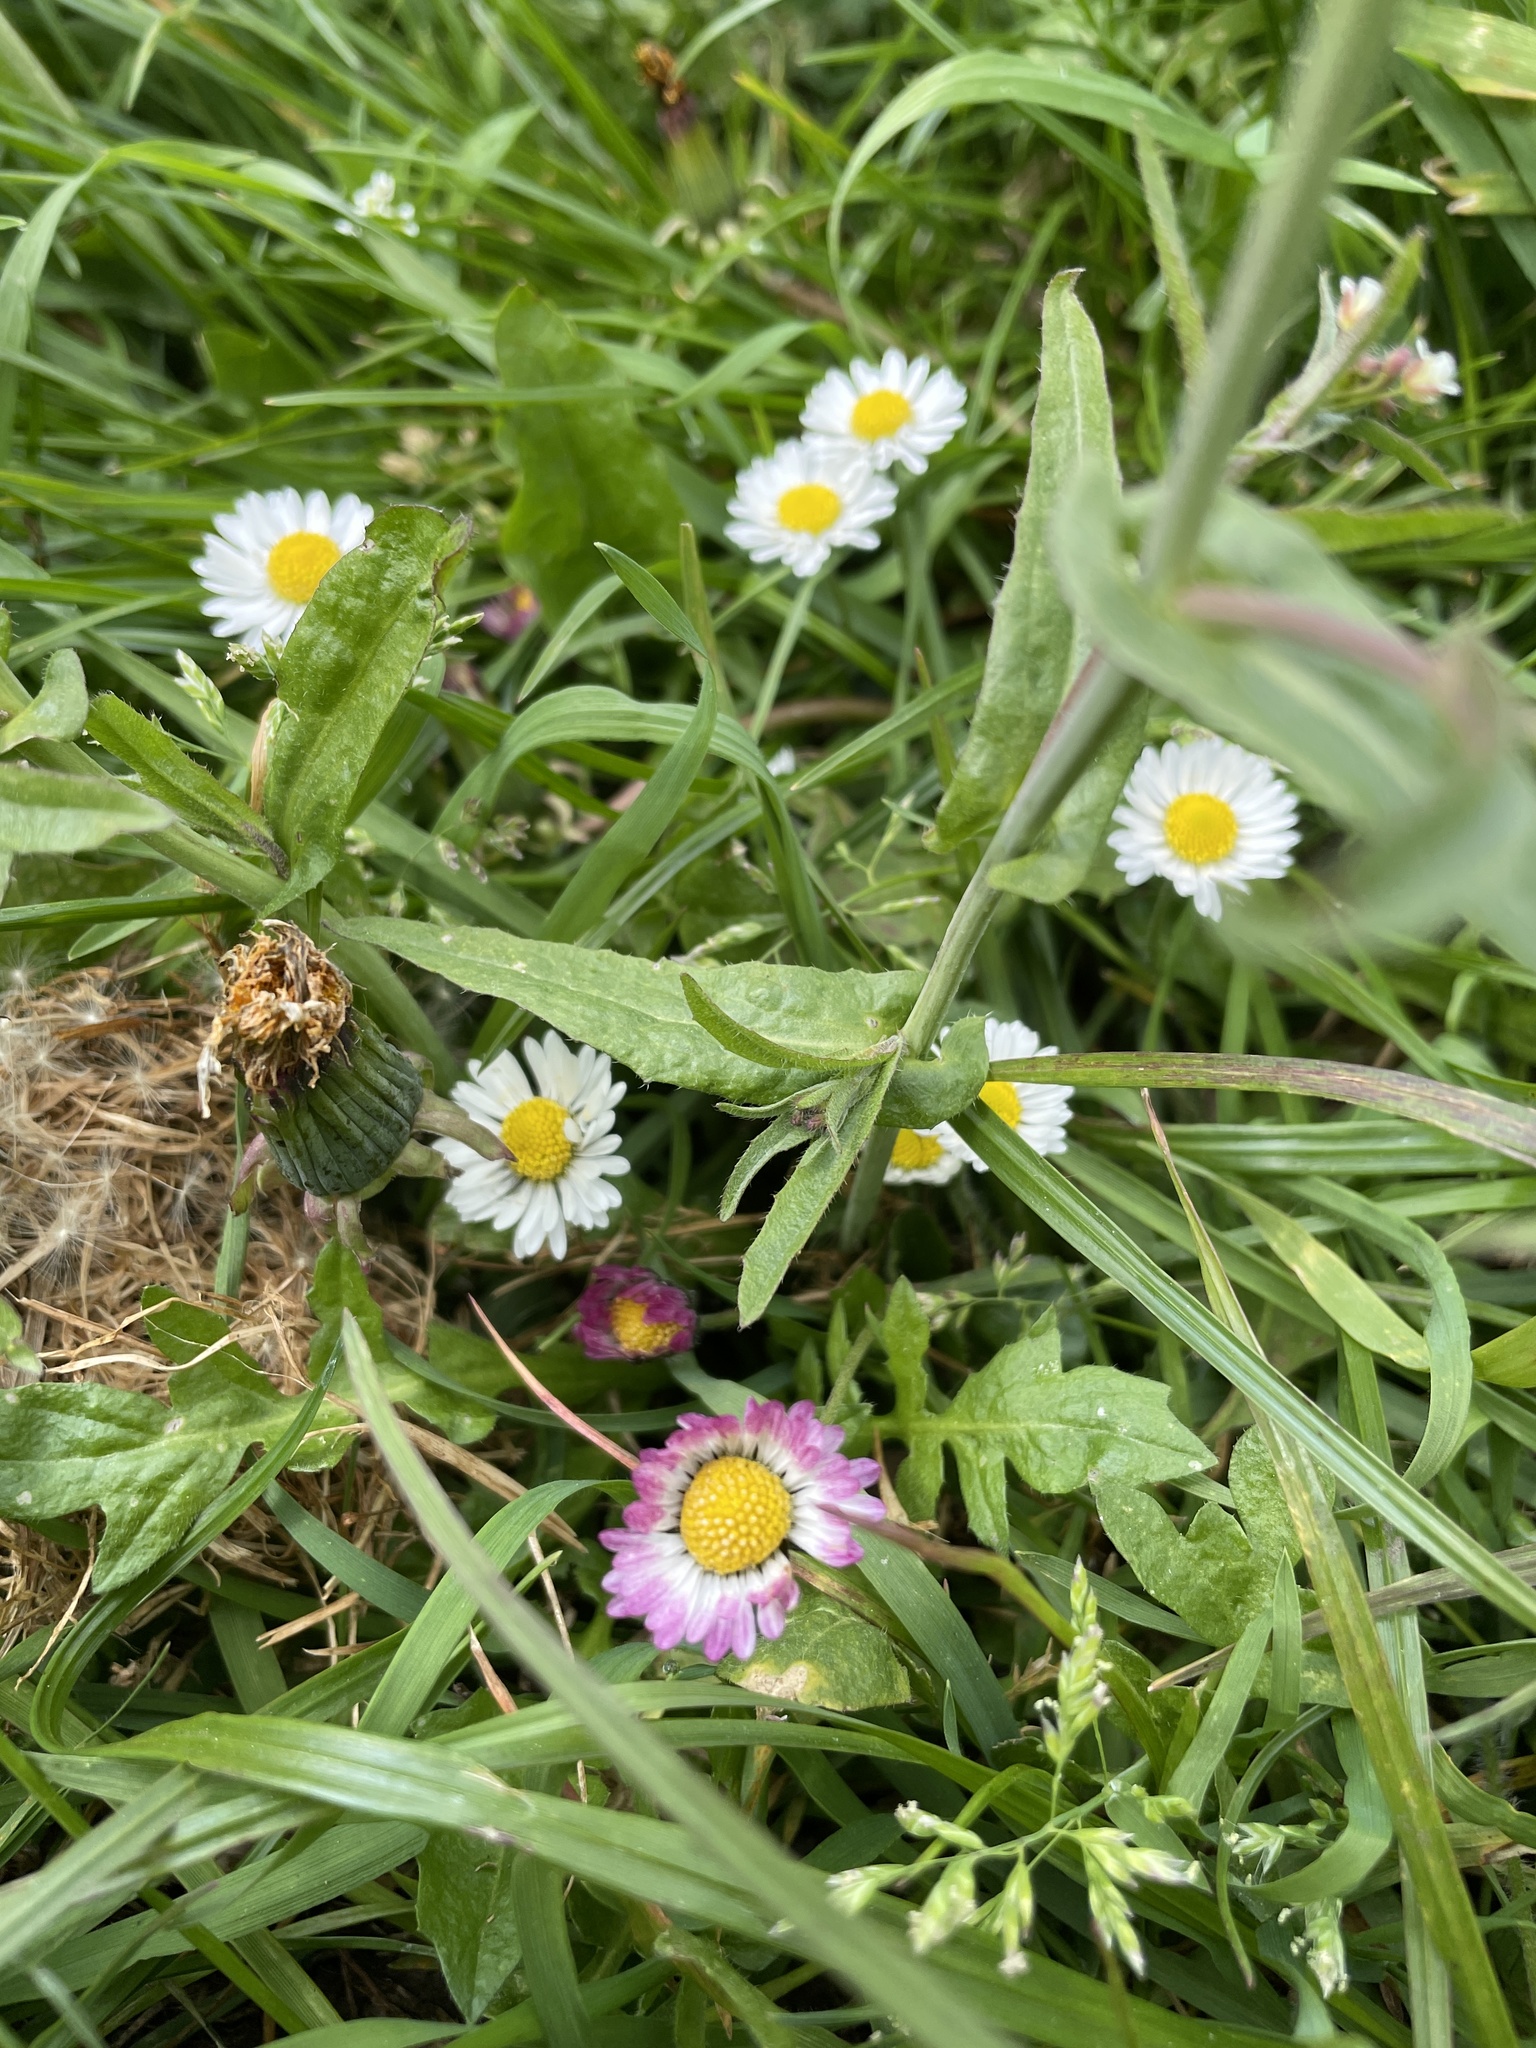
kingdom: Plantae
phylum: Tracheophyta
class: Magnoliopsida
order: Asterales
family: Asteraceae
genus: Bellis
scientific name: Bellis perennis
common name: Lawndaisy
